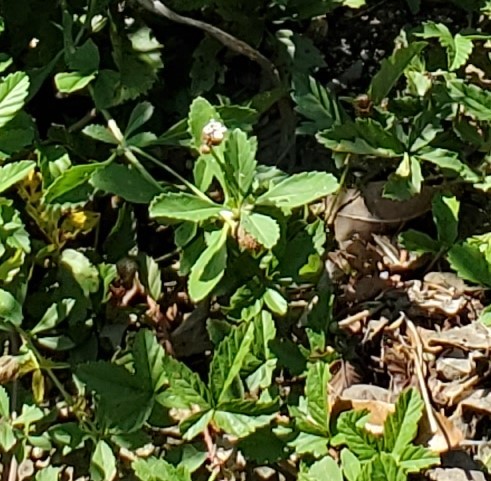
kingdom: Plantae
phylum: Tracheophyta
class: Magnoliopsida
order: Lamiales
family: Verbenaceae
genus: Phyla
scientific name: Phyla nodiflora
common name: Frogfruit
